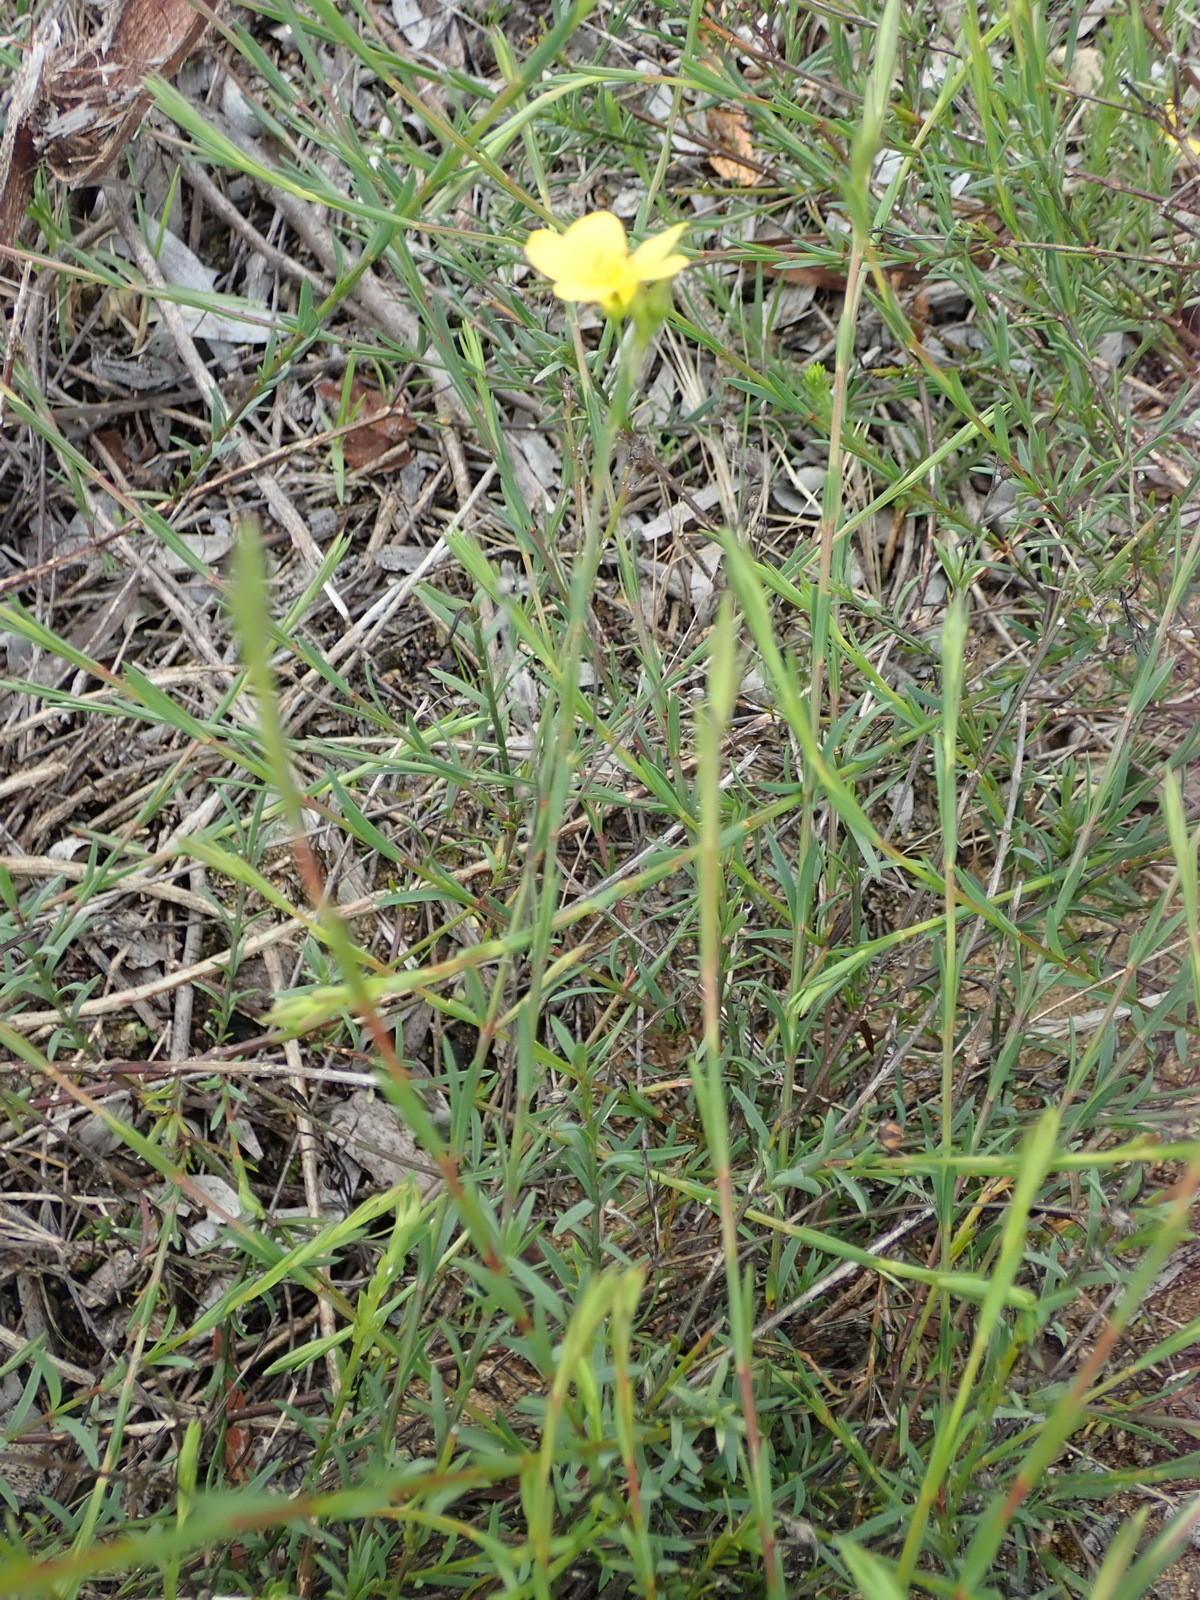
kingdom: Plantae
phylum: Tracheophyta
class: Magnoliopsida
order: Malpighiales
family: Linaceae
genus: Linum
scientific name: Linum aethiopicum
